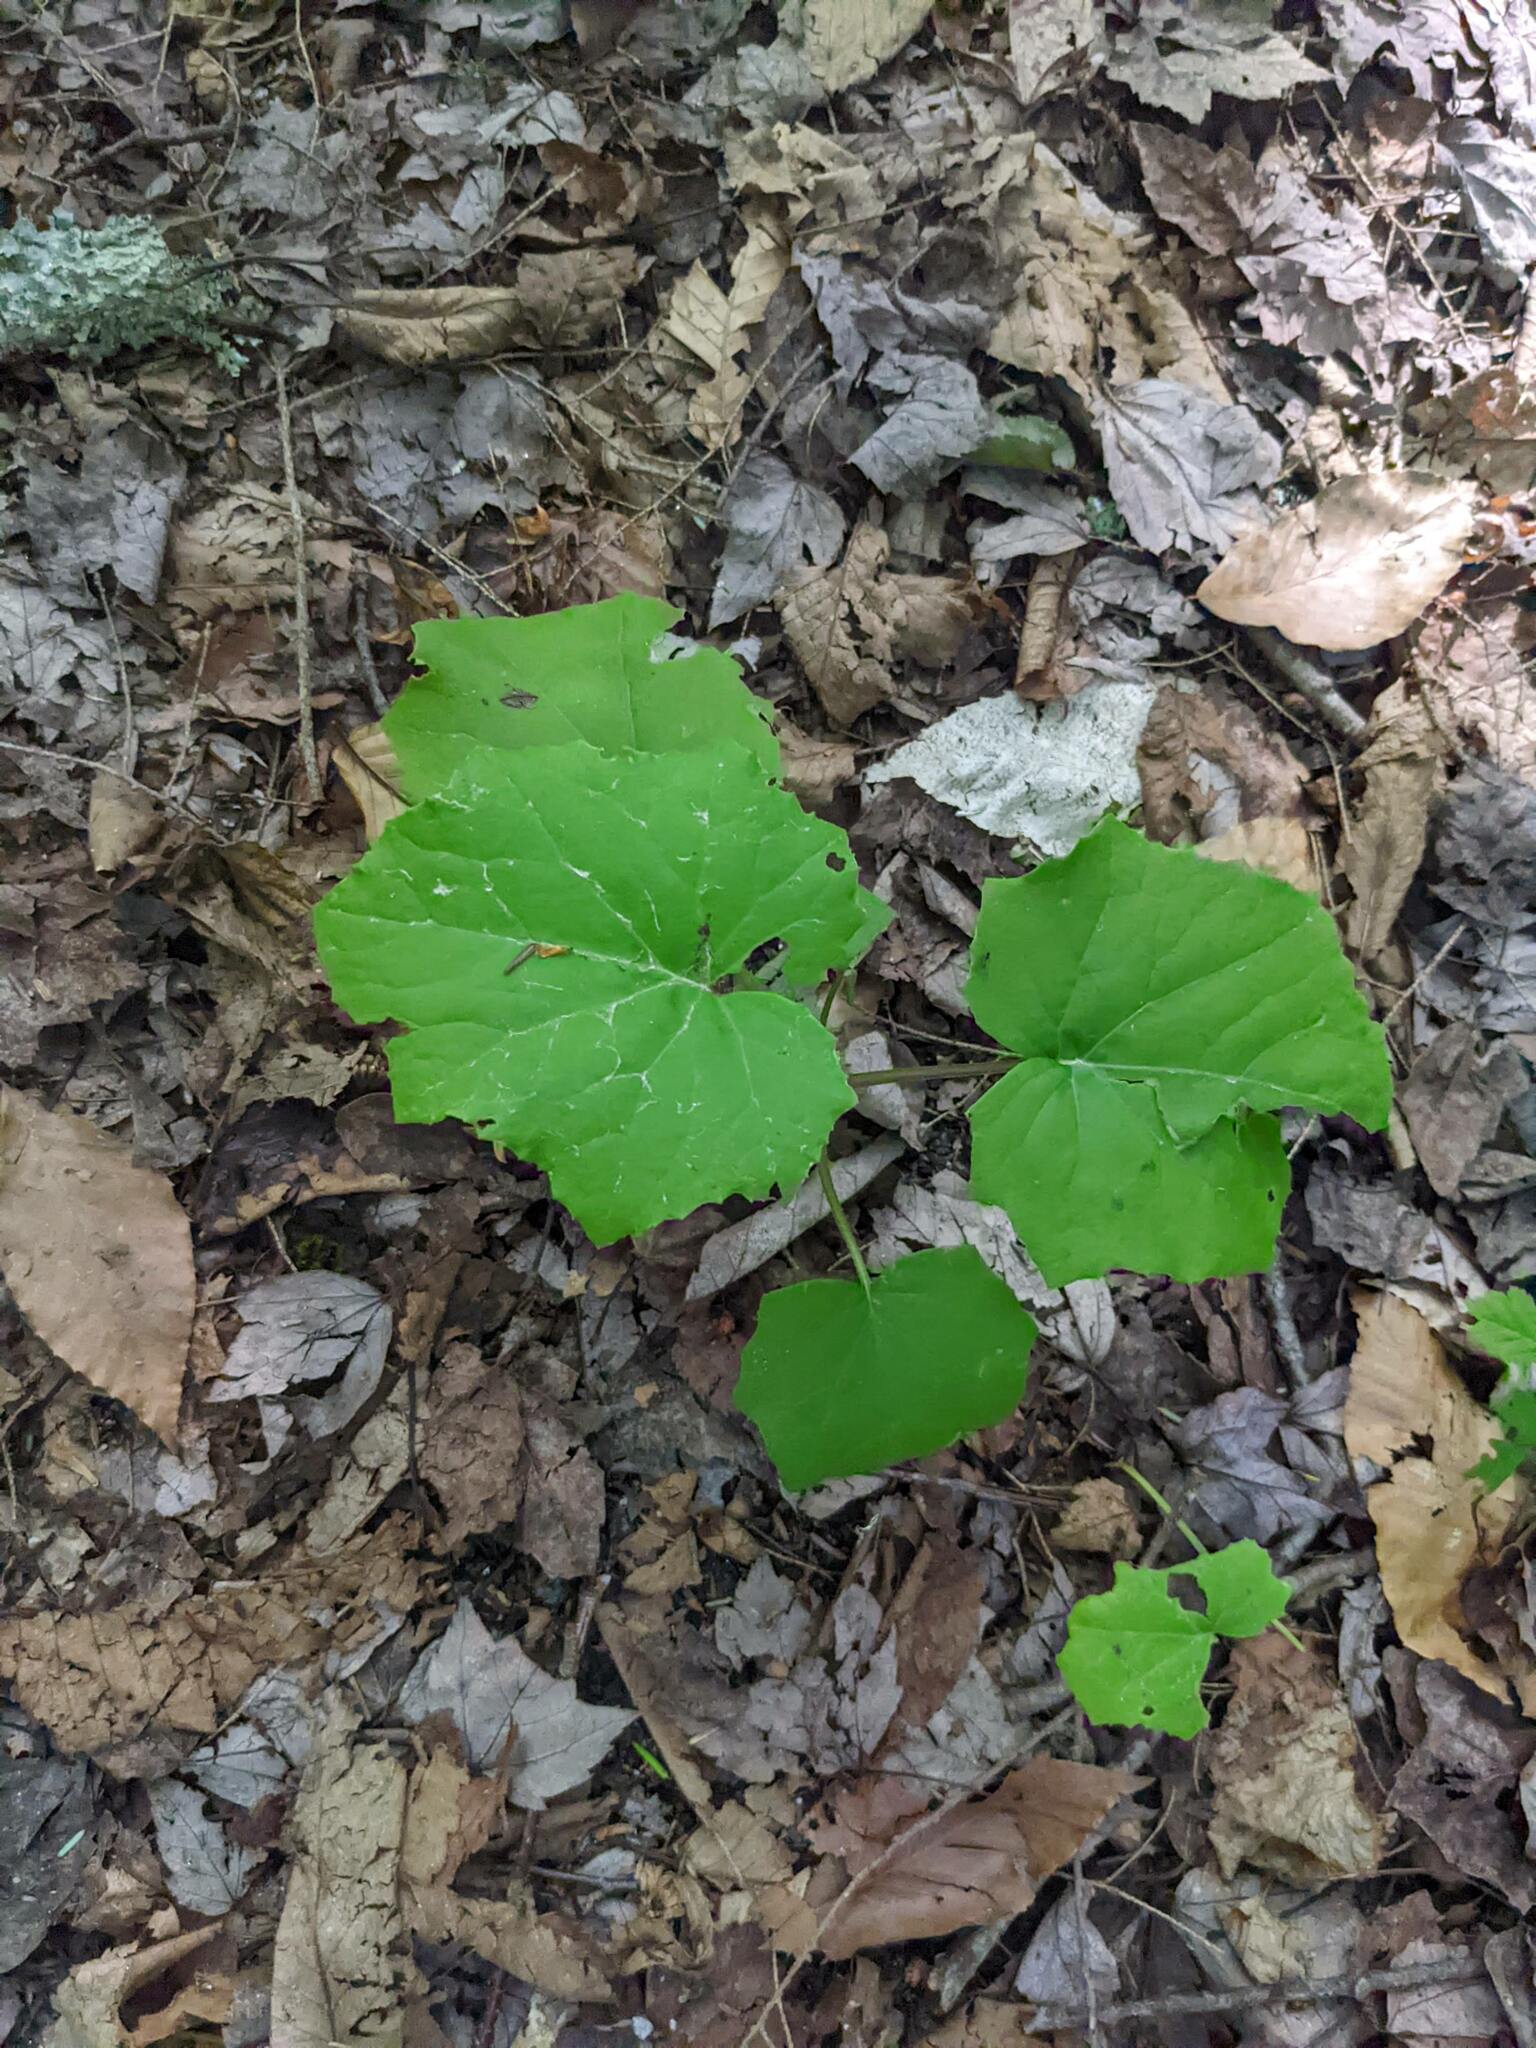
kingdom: Plantae
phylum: Tracheophyta
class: Magnoliopsida
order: Asterales
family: Asteraceae
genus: Tussilago
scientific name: Tussilago farfara
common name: Coltsfoot
